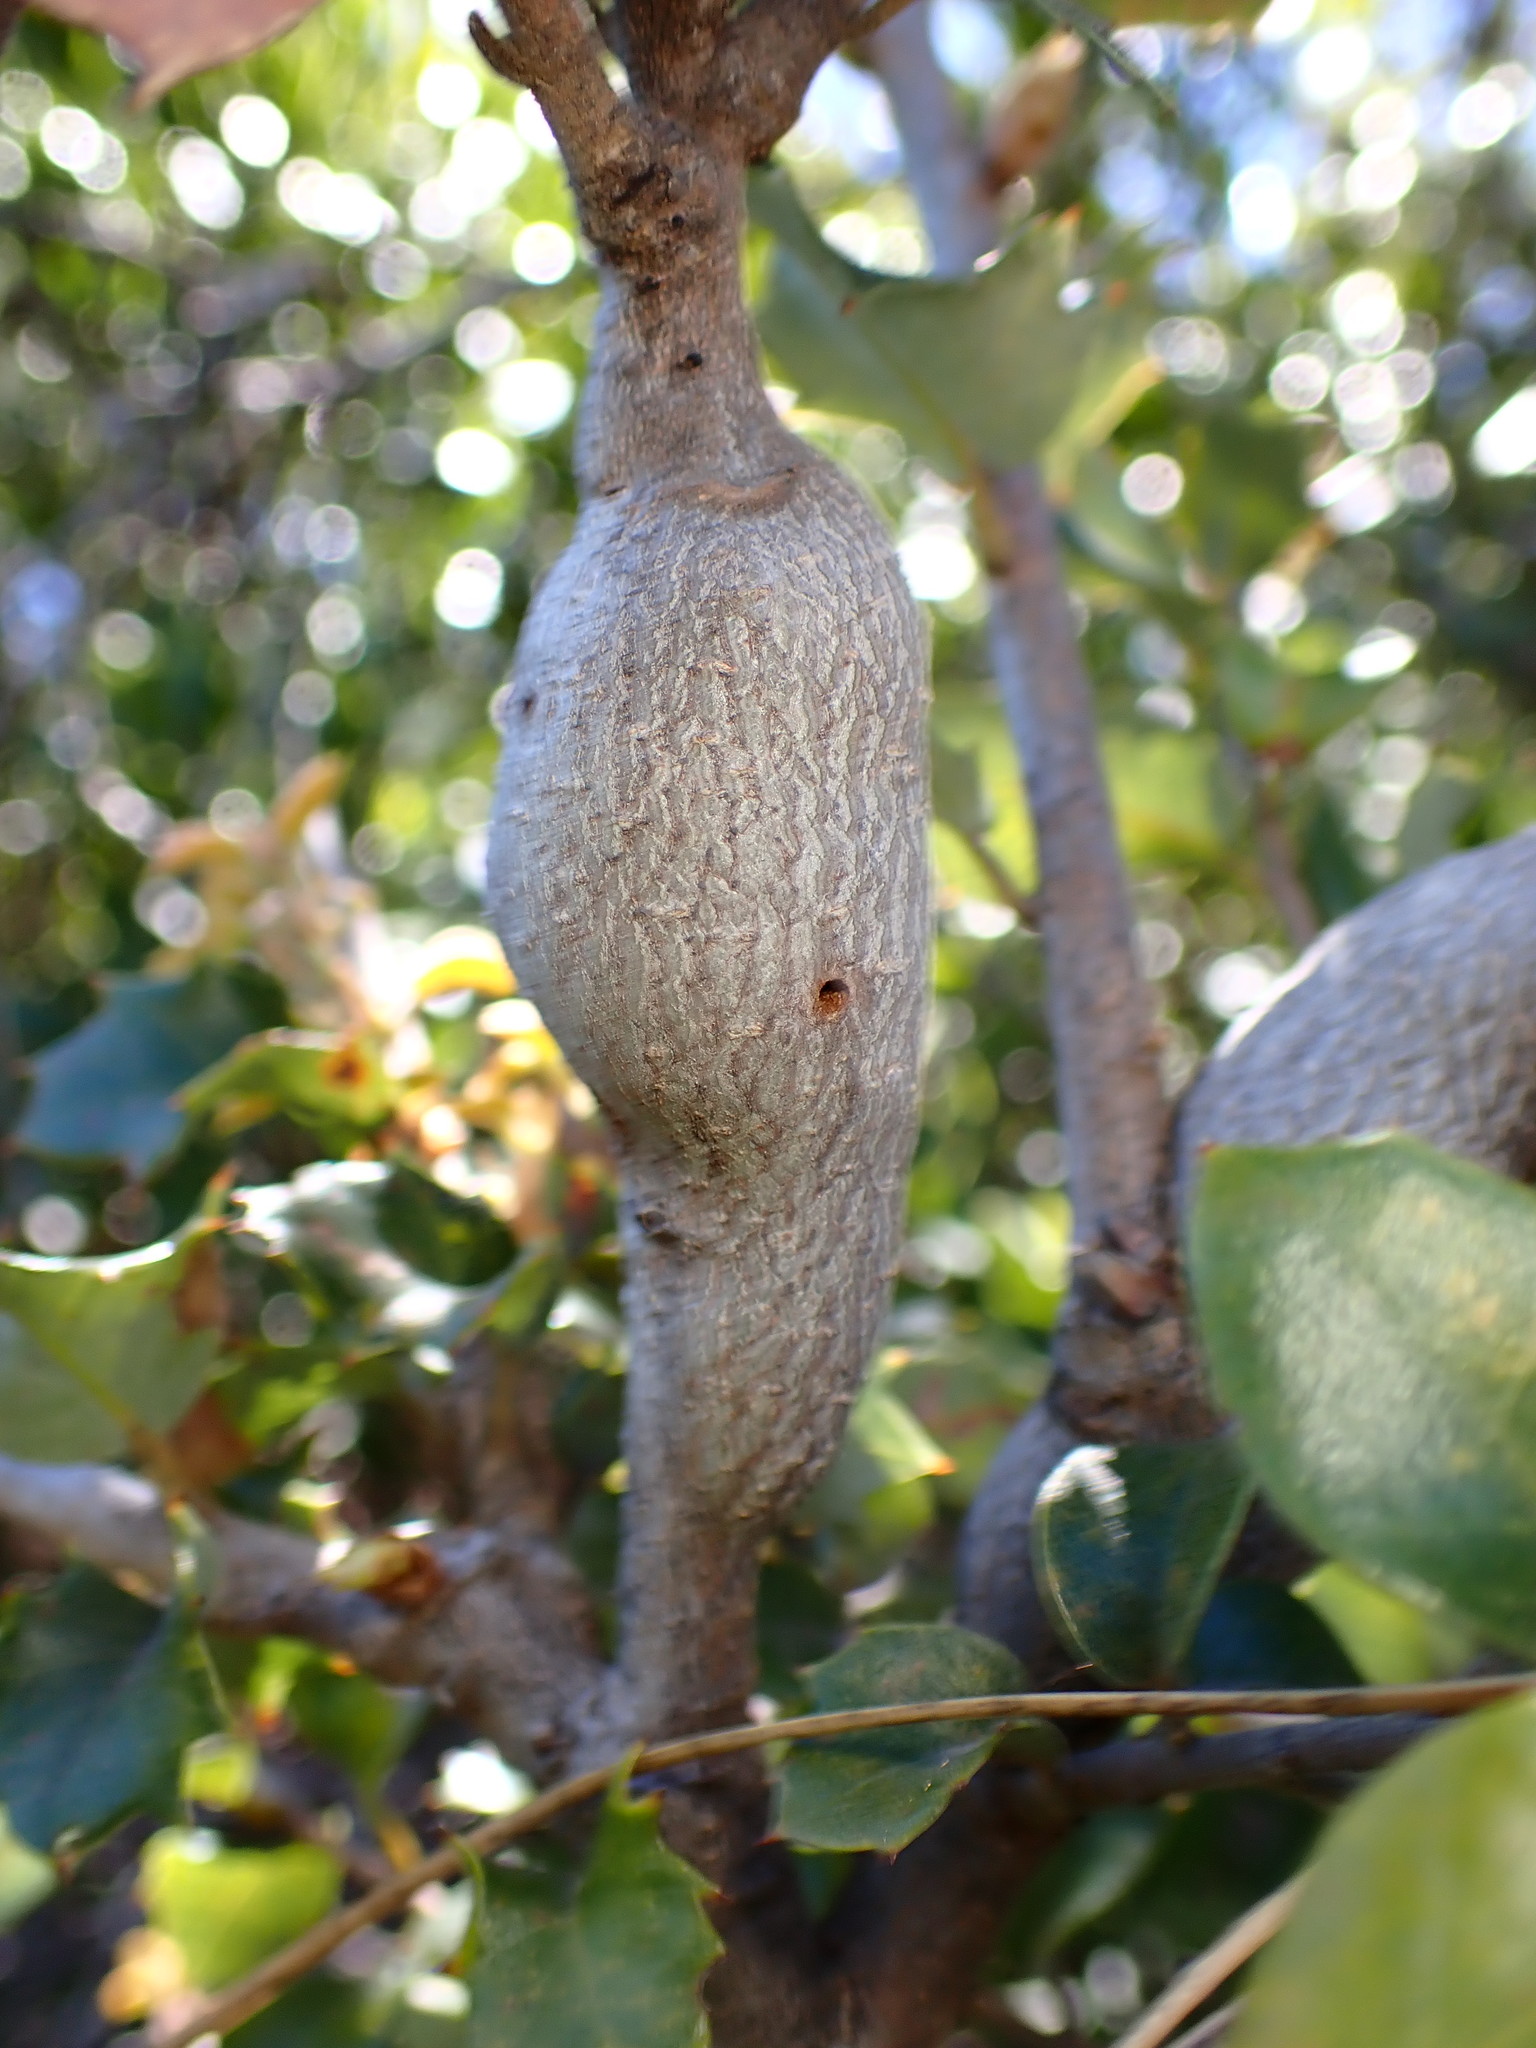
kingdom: Animalia
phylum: Arthropoda
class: Insecta
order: Hymenoptera
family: Cynipidae
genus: Disholcaspis
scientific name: Disholcaspis spectabilis
